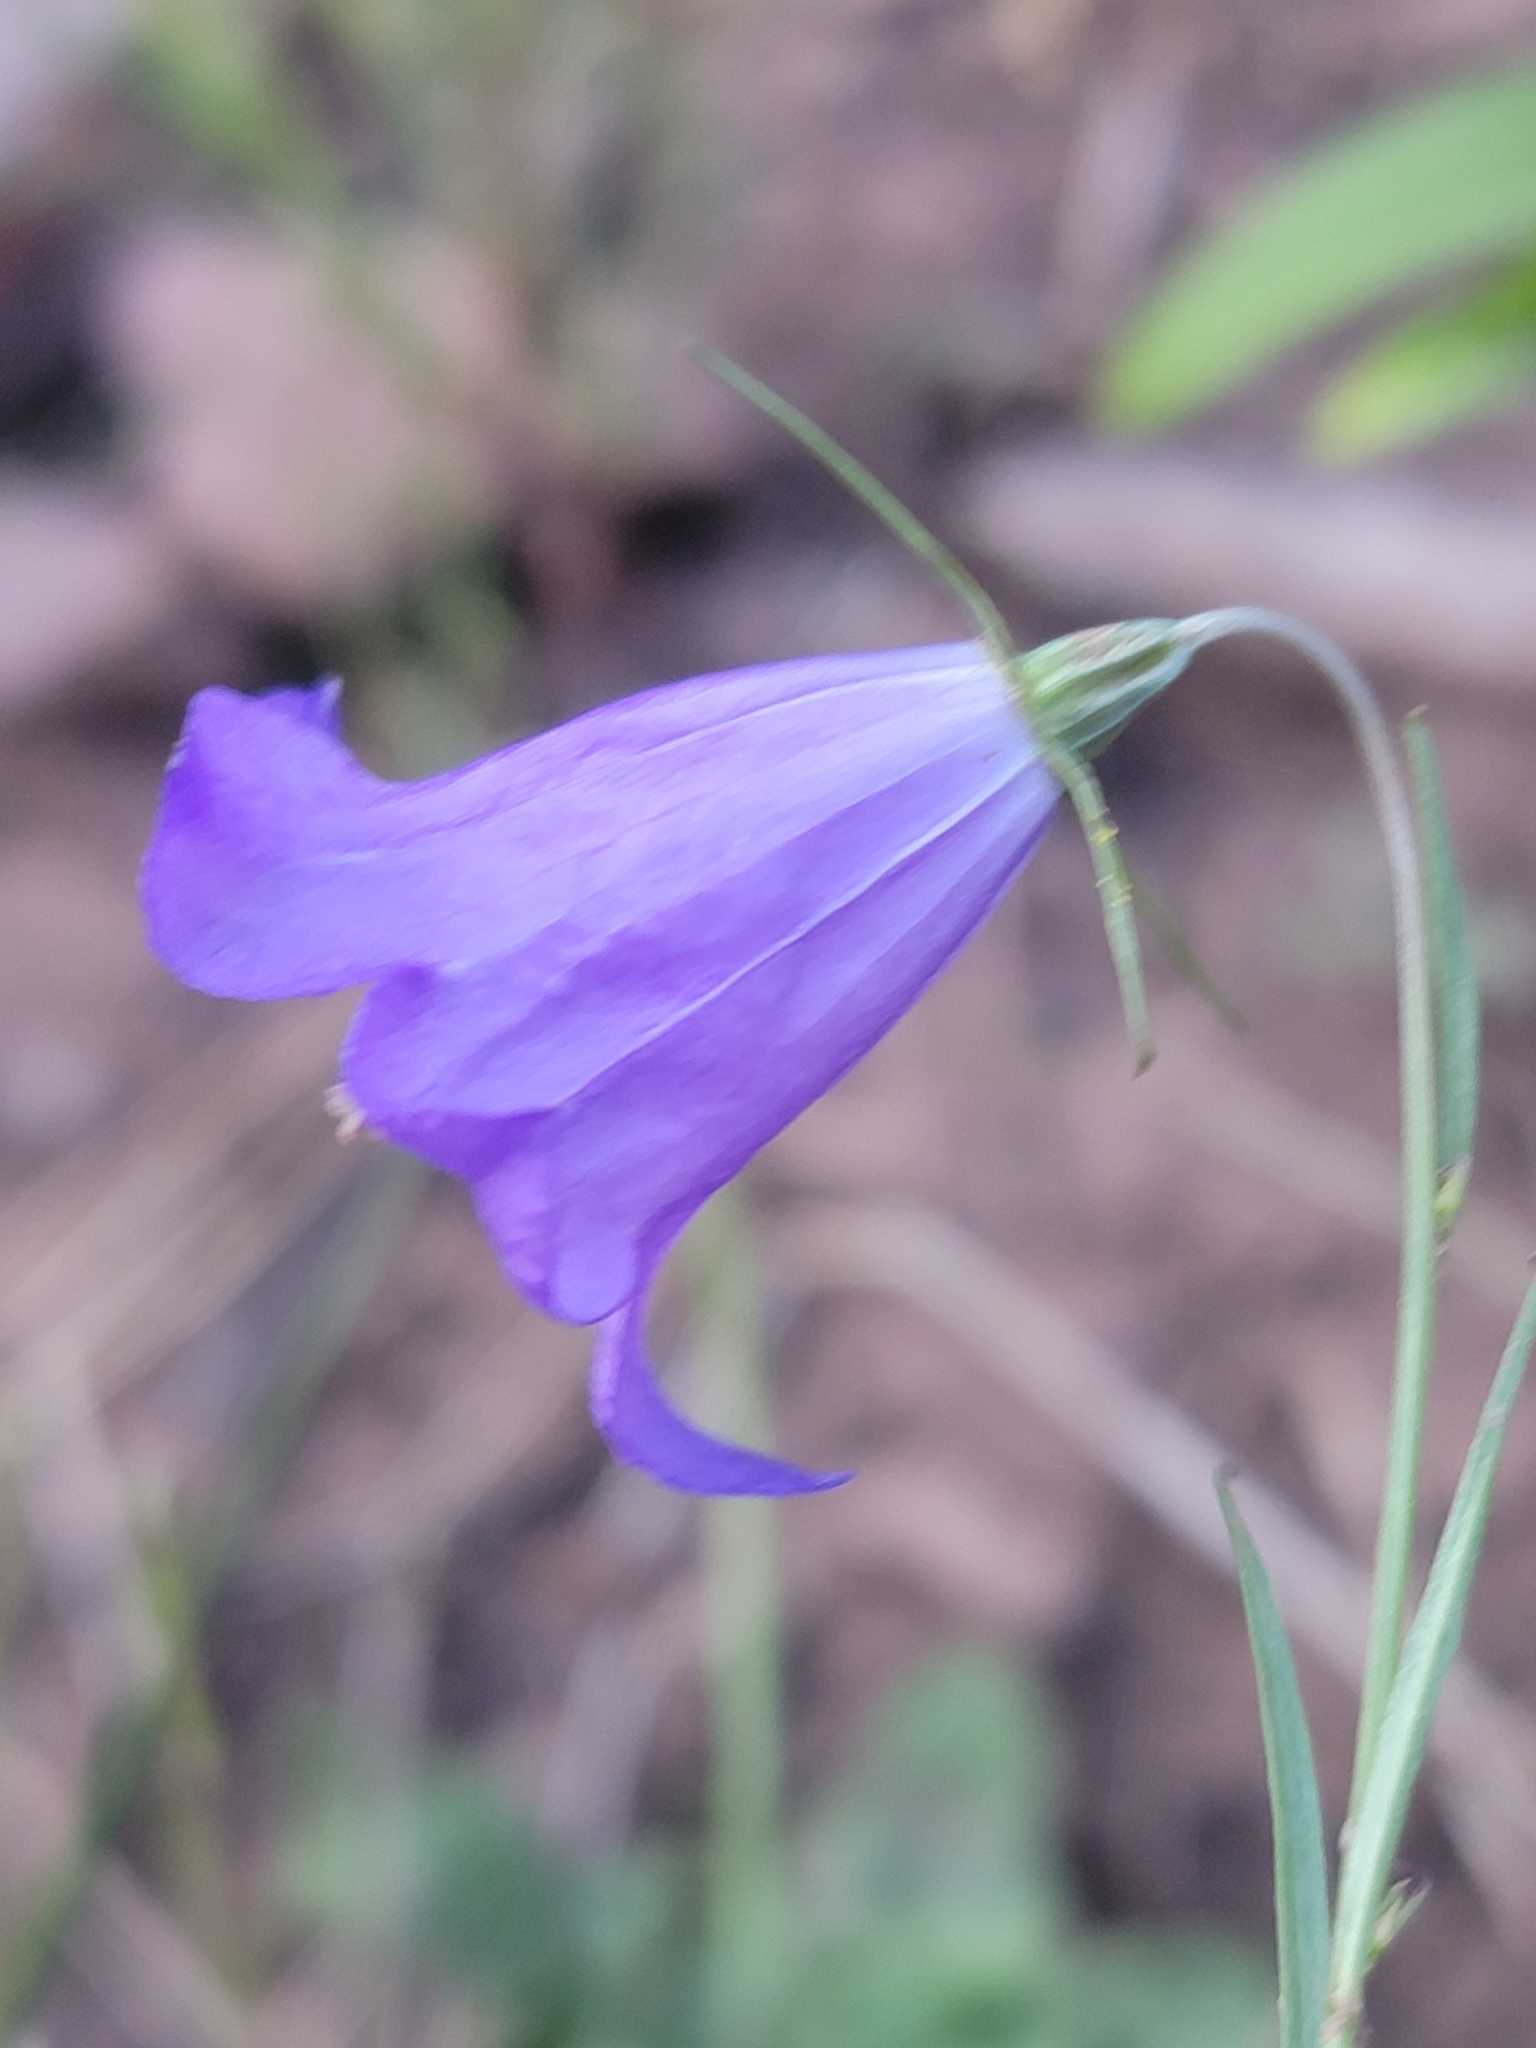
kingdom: Plantae
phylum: Tracheophyta
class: Magnoliopsida
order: Asterales
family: Campanulaceae
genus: Campanula
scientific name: Campanula petiolata
